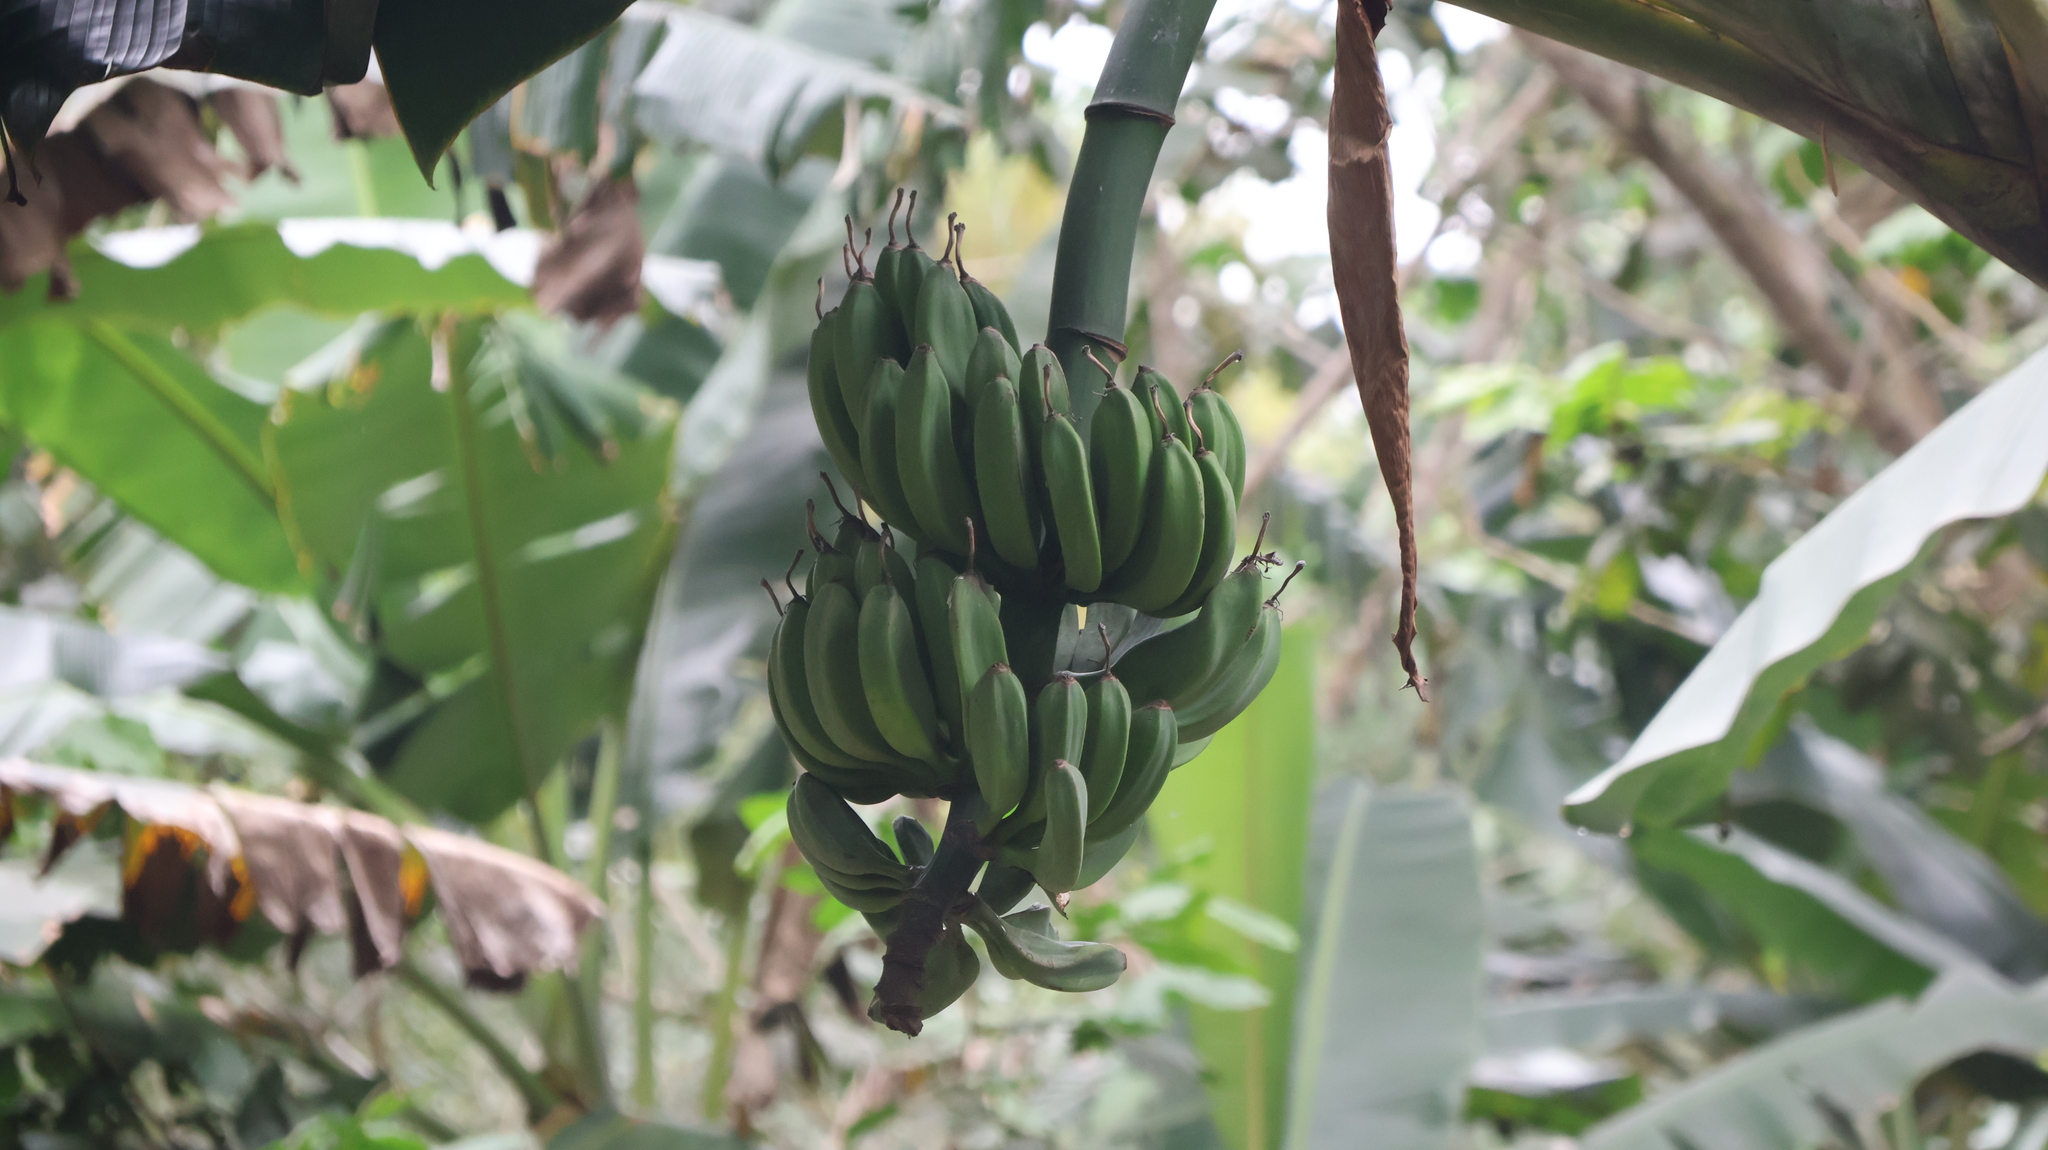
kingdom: Plantae
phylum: Tracheophyta
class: Liliopsida
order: Zingiberales
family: Musaceae
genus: Musa
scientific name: Musa paradisiaca
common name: French plantain
